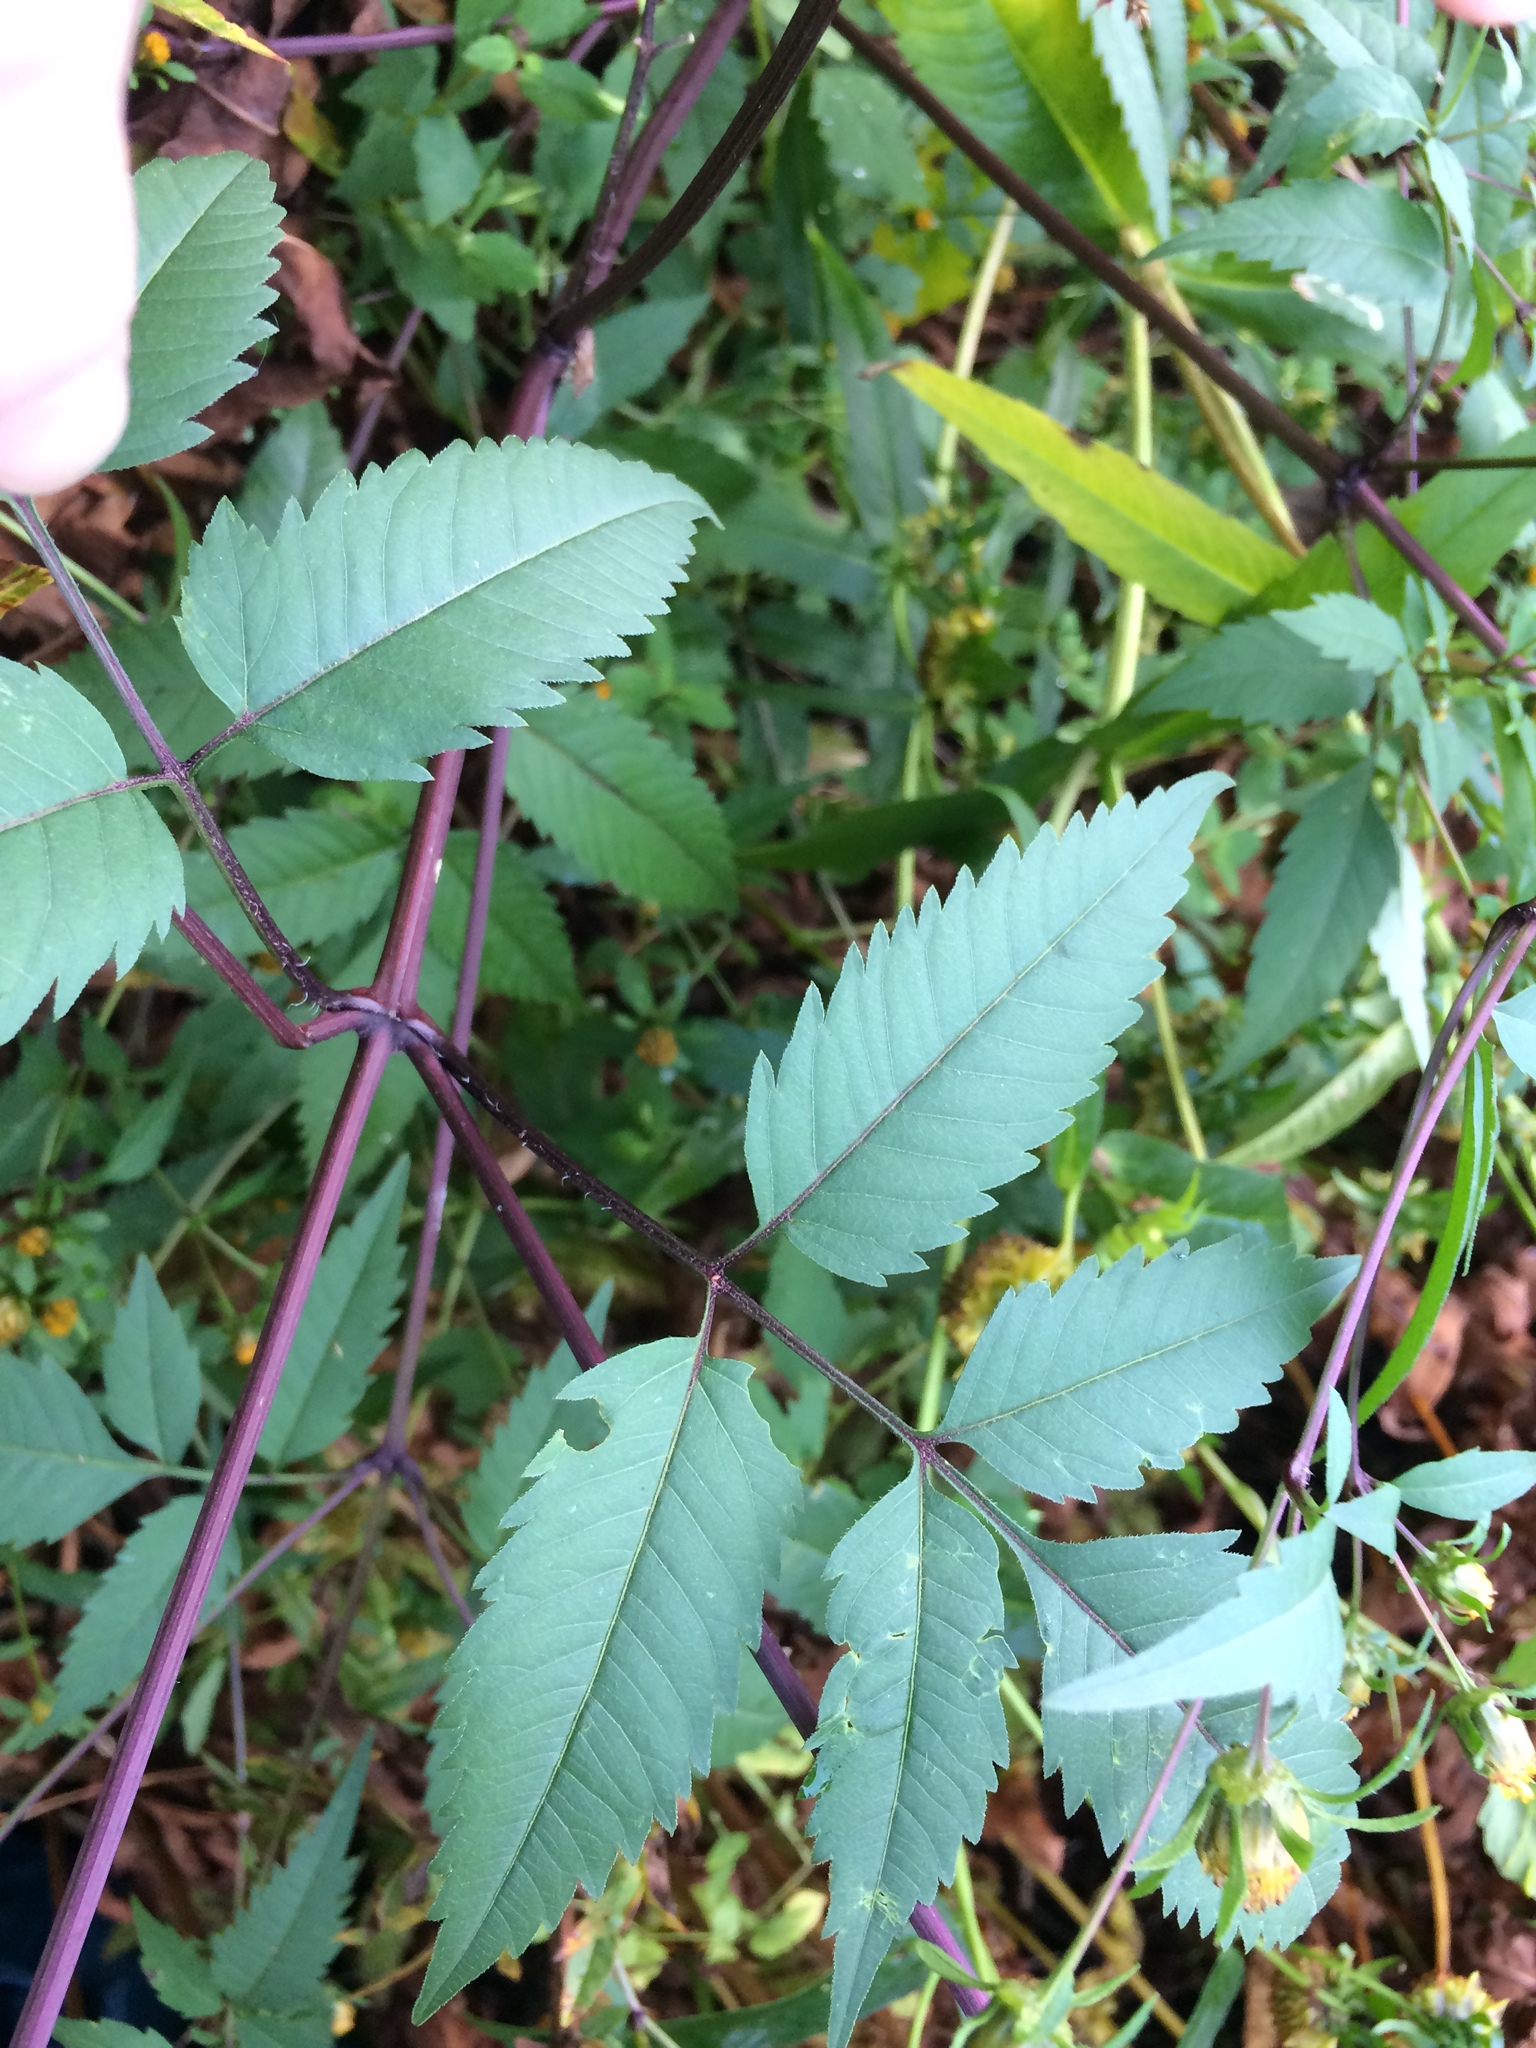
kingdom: Plantae
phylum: Tracheophyta
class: Magnoliopsida
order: Asterales
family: Asteraceae
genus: Bidens
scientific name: Bidens frondosa
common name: Beggarticks
